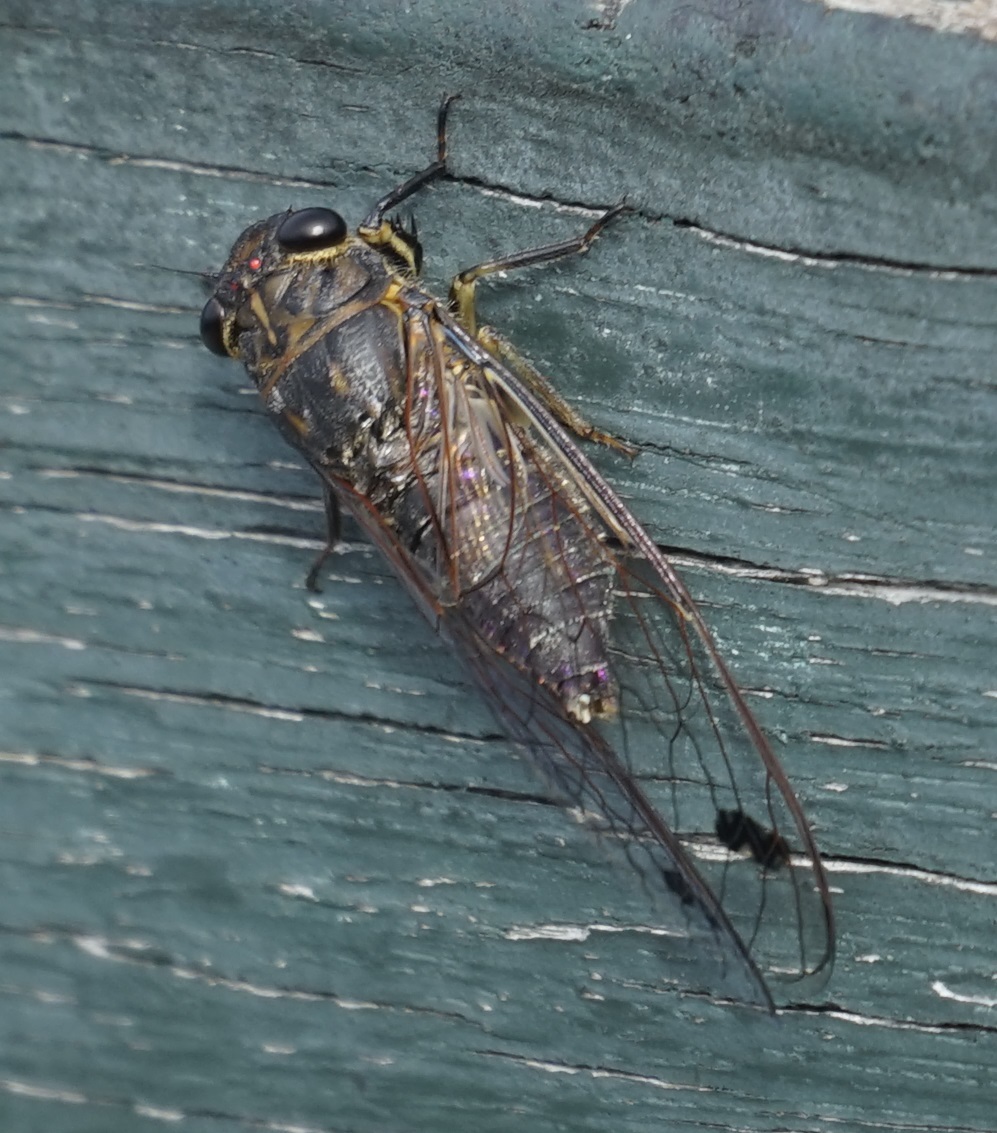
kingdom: Animalia
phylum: Arthropoda
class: Insecta
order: Hemiptera
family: Cicadidae
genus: Galanga
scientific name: Galanga labeculata
